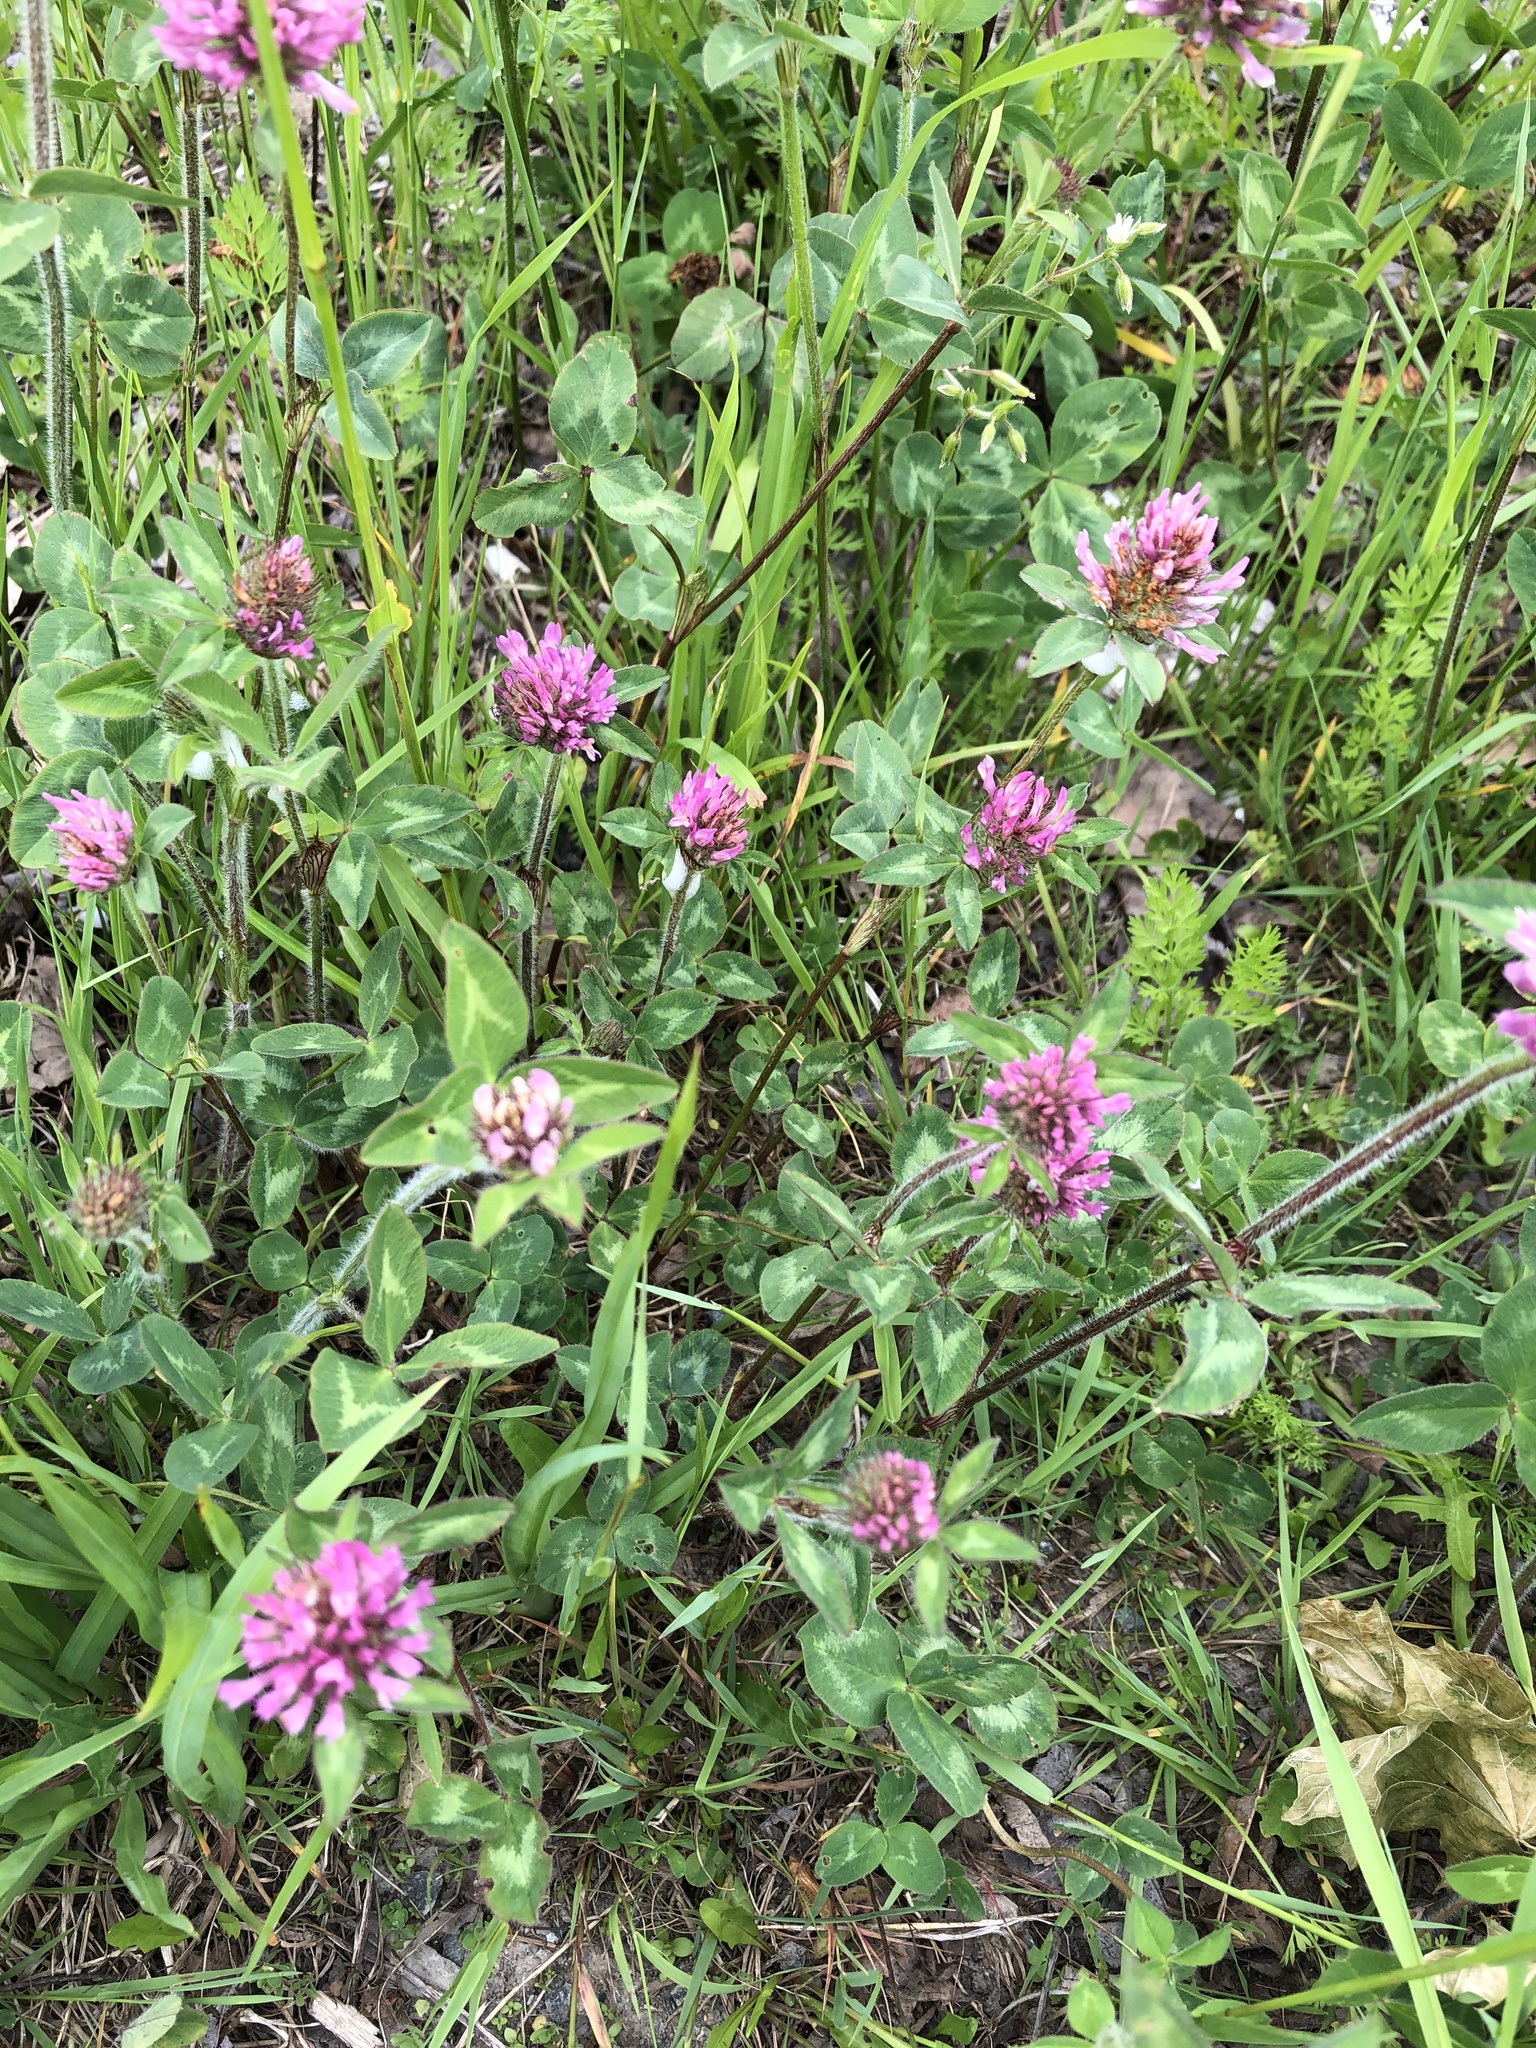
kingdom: Plantae
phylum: Tracheophyta
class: Magnoliopsida
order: Fabales
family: Fabaceae
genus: Trifolium
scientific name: Trifolium pratense
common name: Red clover
